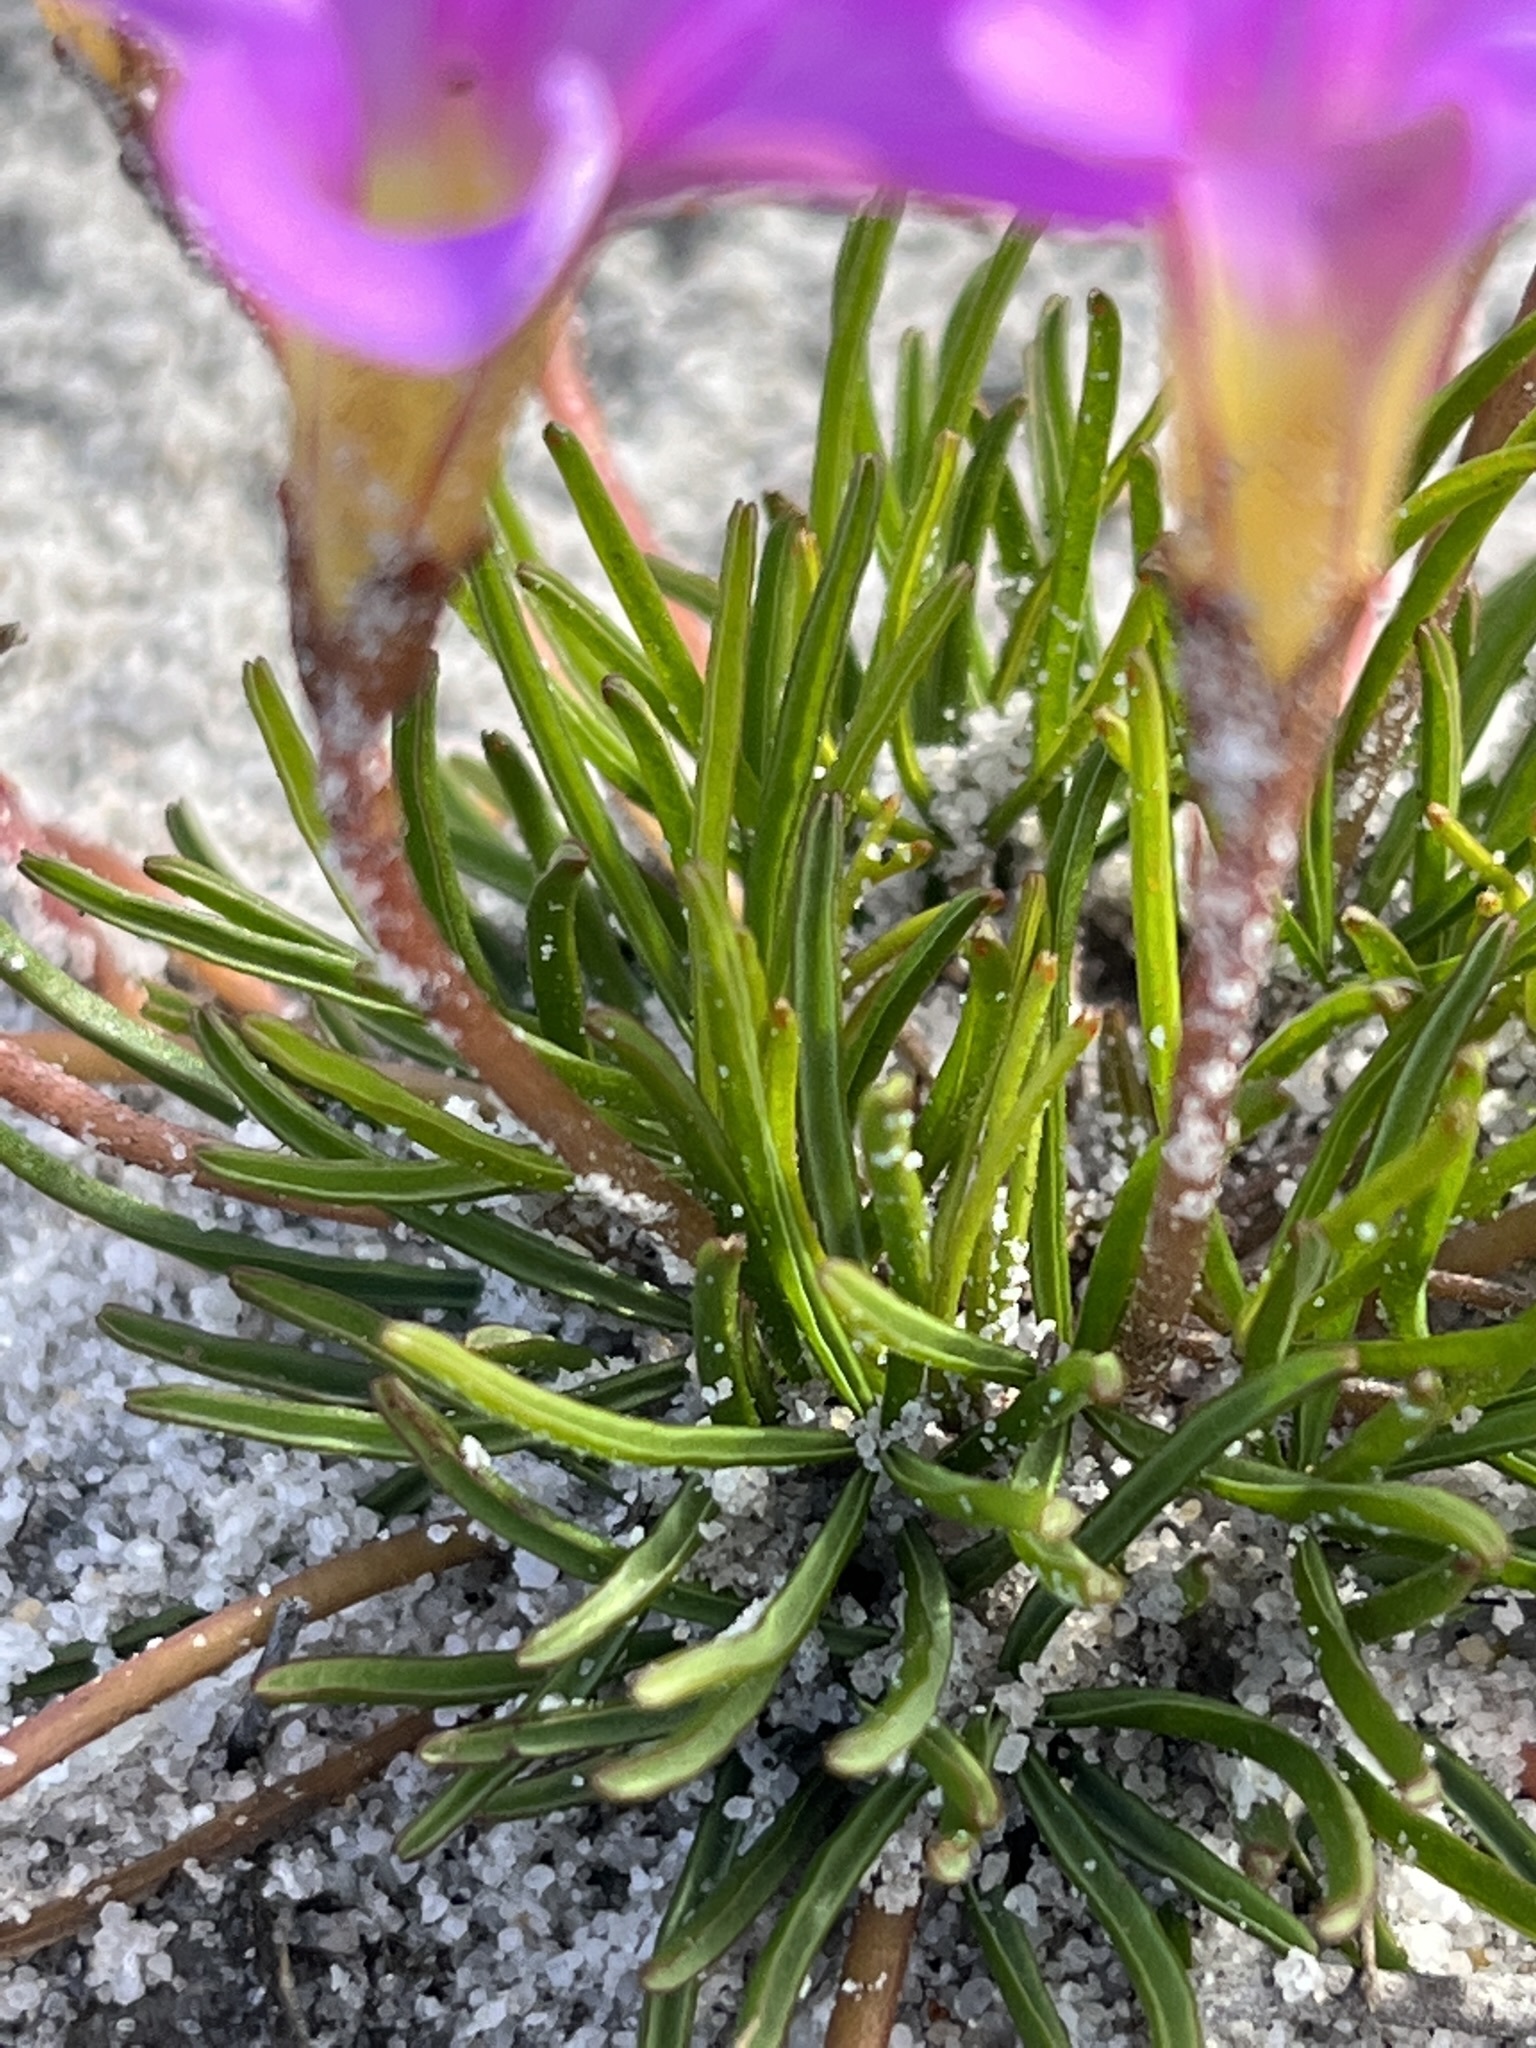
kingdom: Plantae
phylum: Tracheophyta
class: Magnoliopsida
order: Oxalidales
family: Oxalidaceae
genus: Oxalis
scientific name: Oxalis polyphylla
